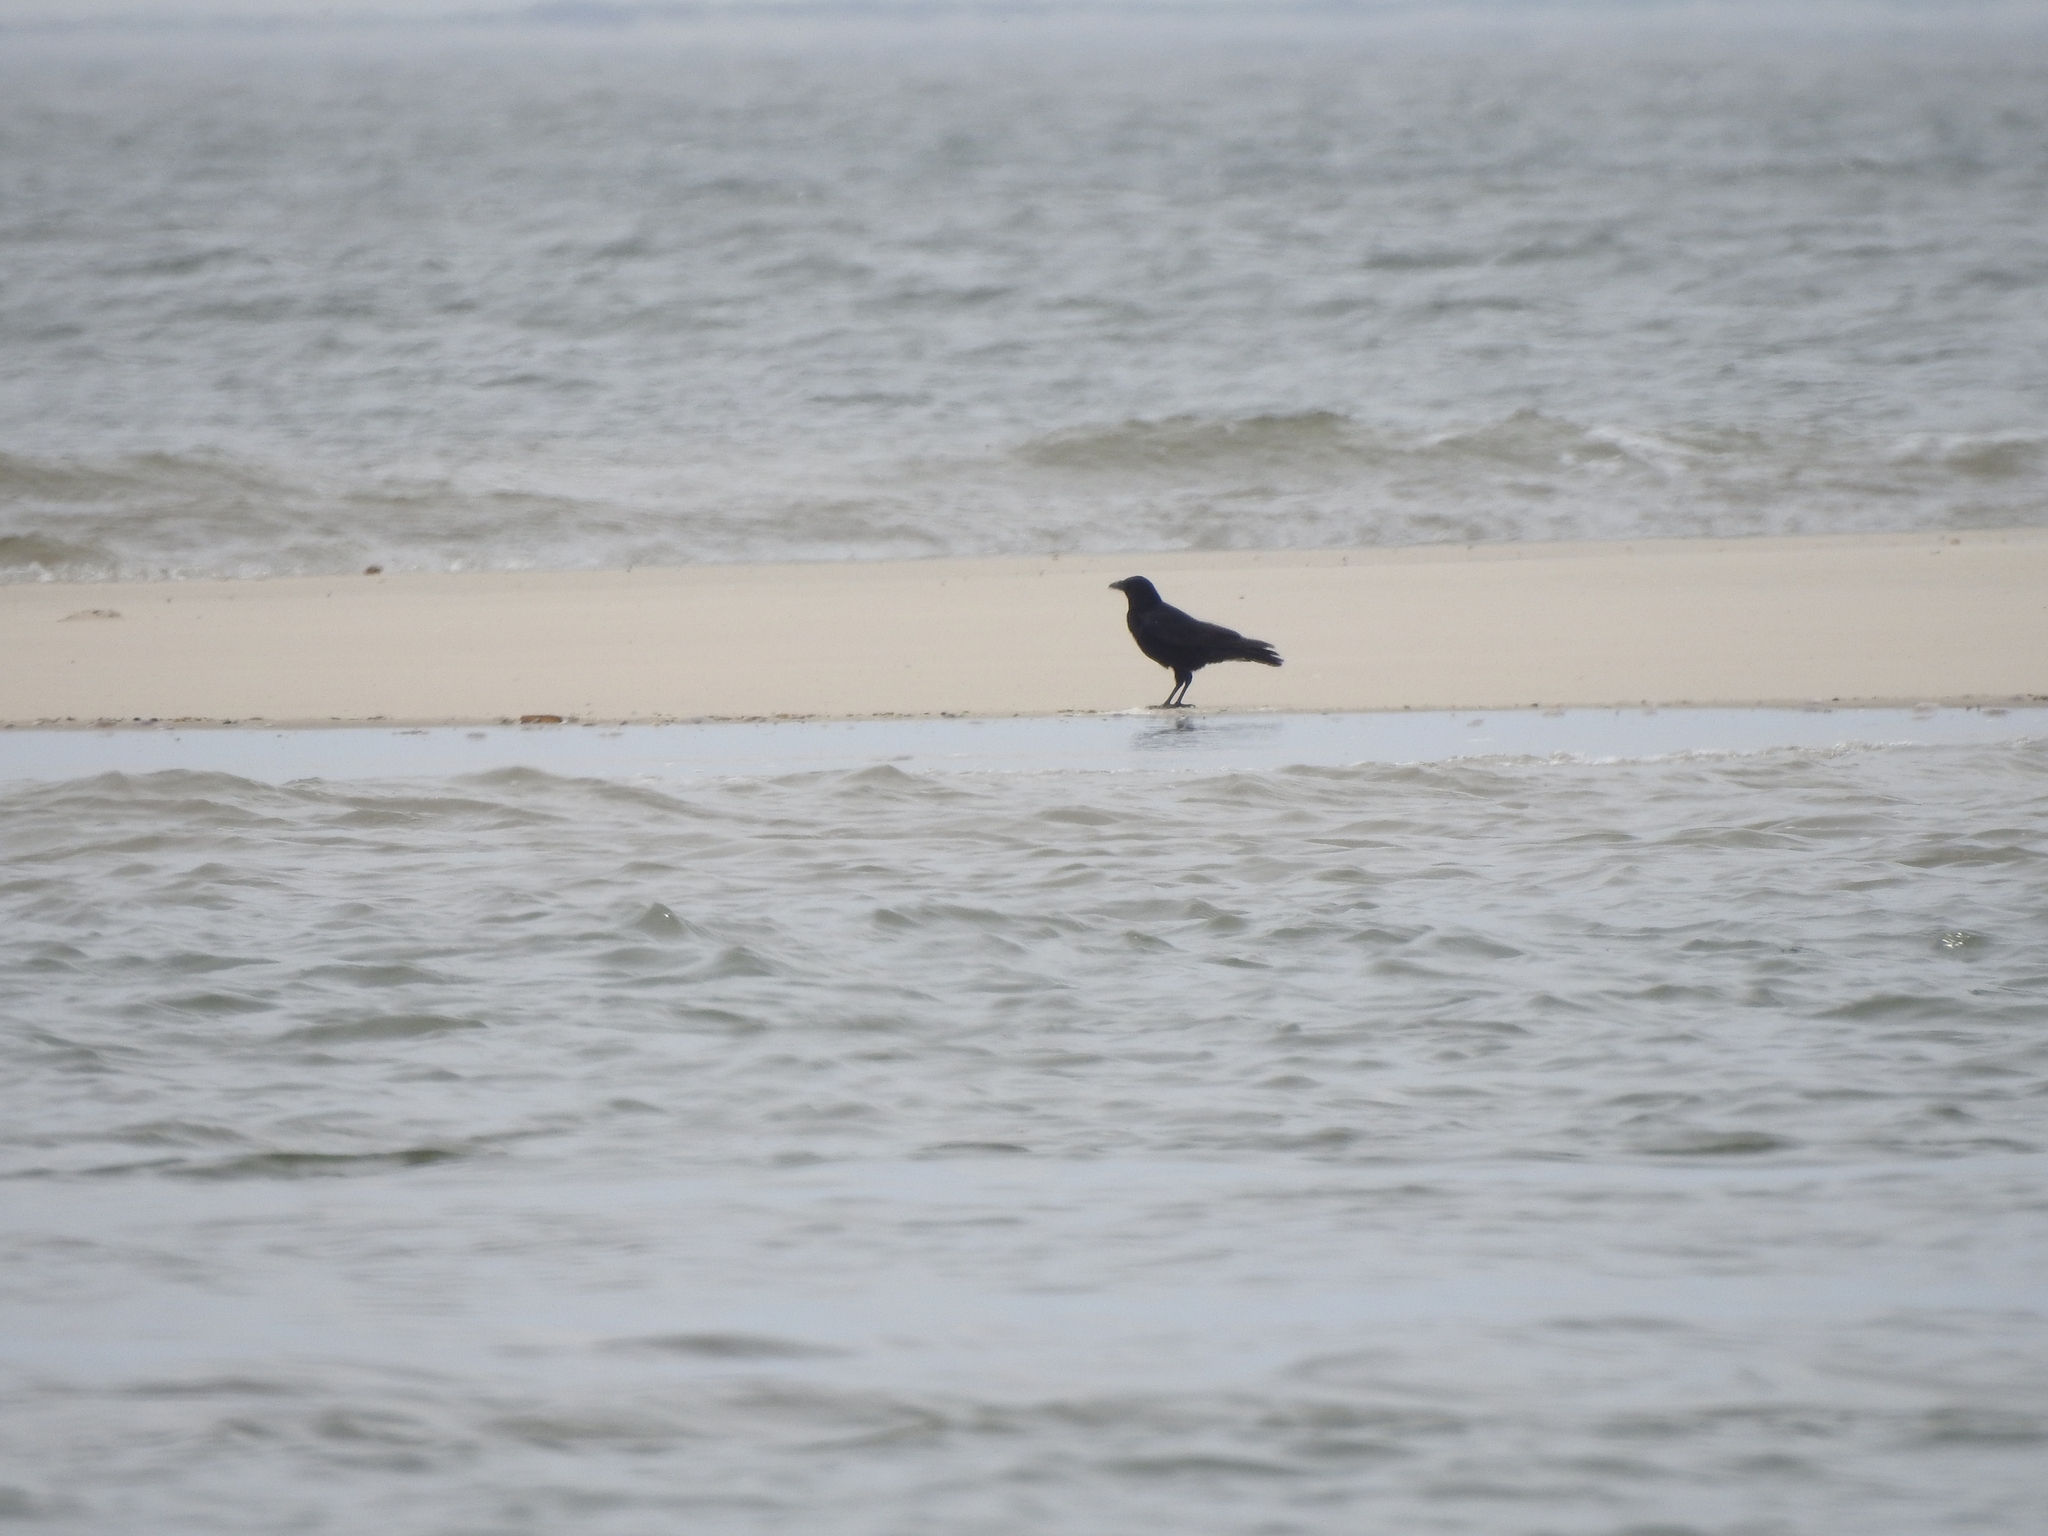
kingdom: Animalia
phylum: Chordata
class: Aves
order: Passeriformes
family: Corvidae
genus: Corvus
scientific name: Corvus corone
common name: Carrion crow
